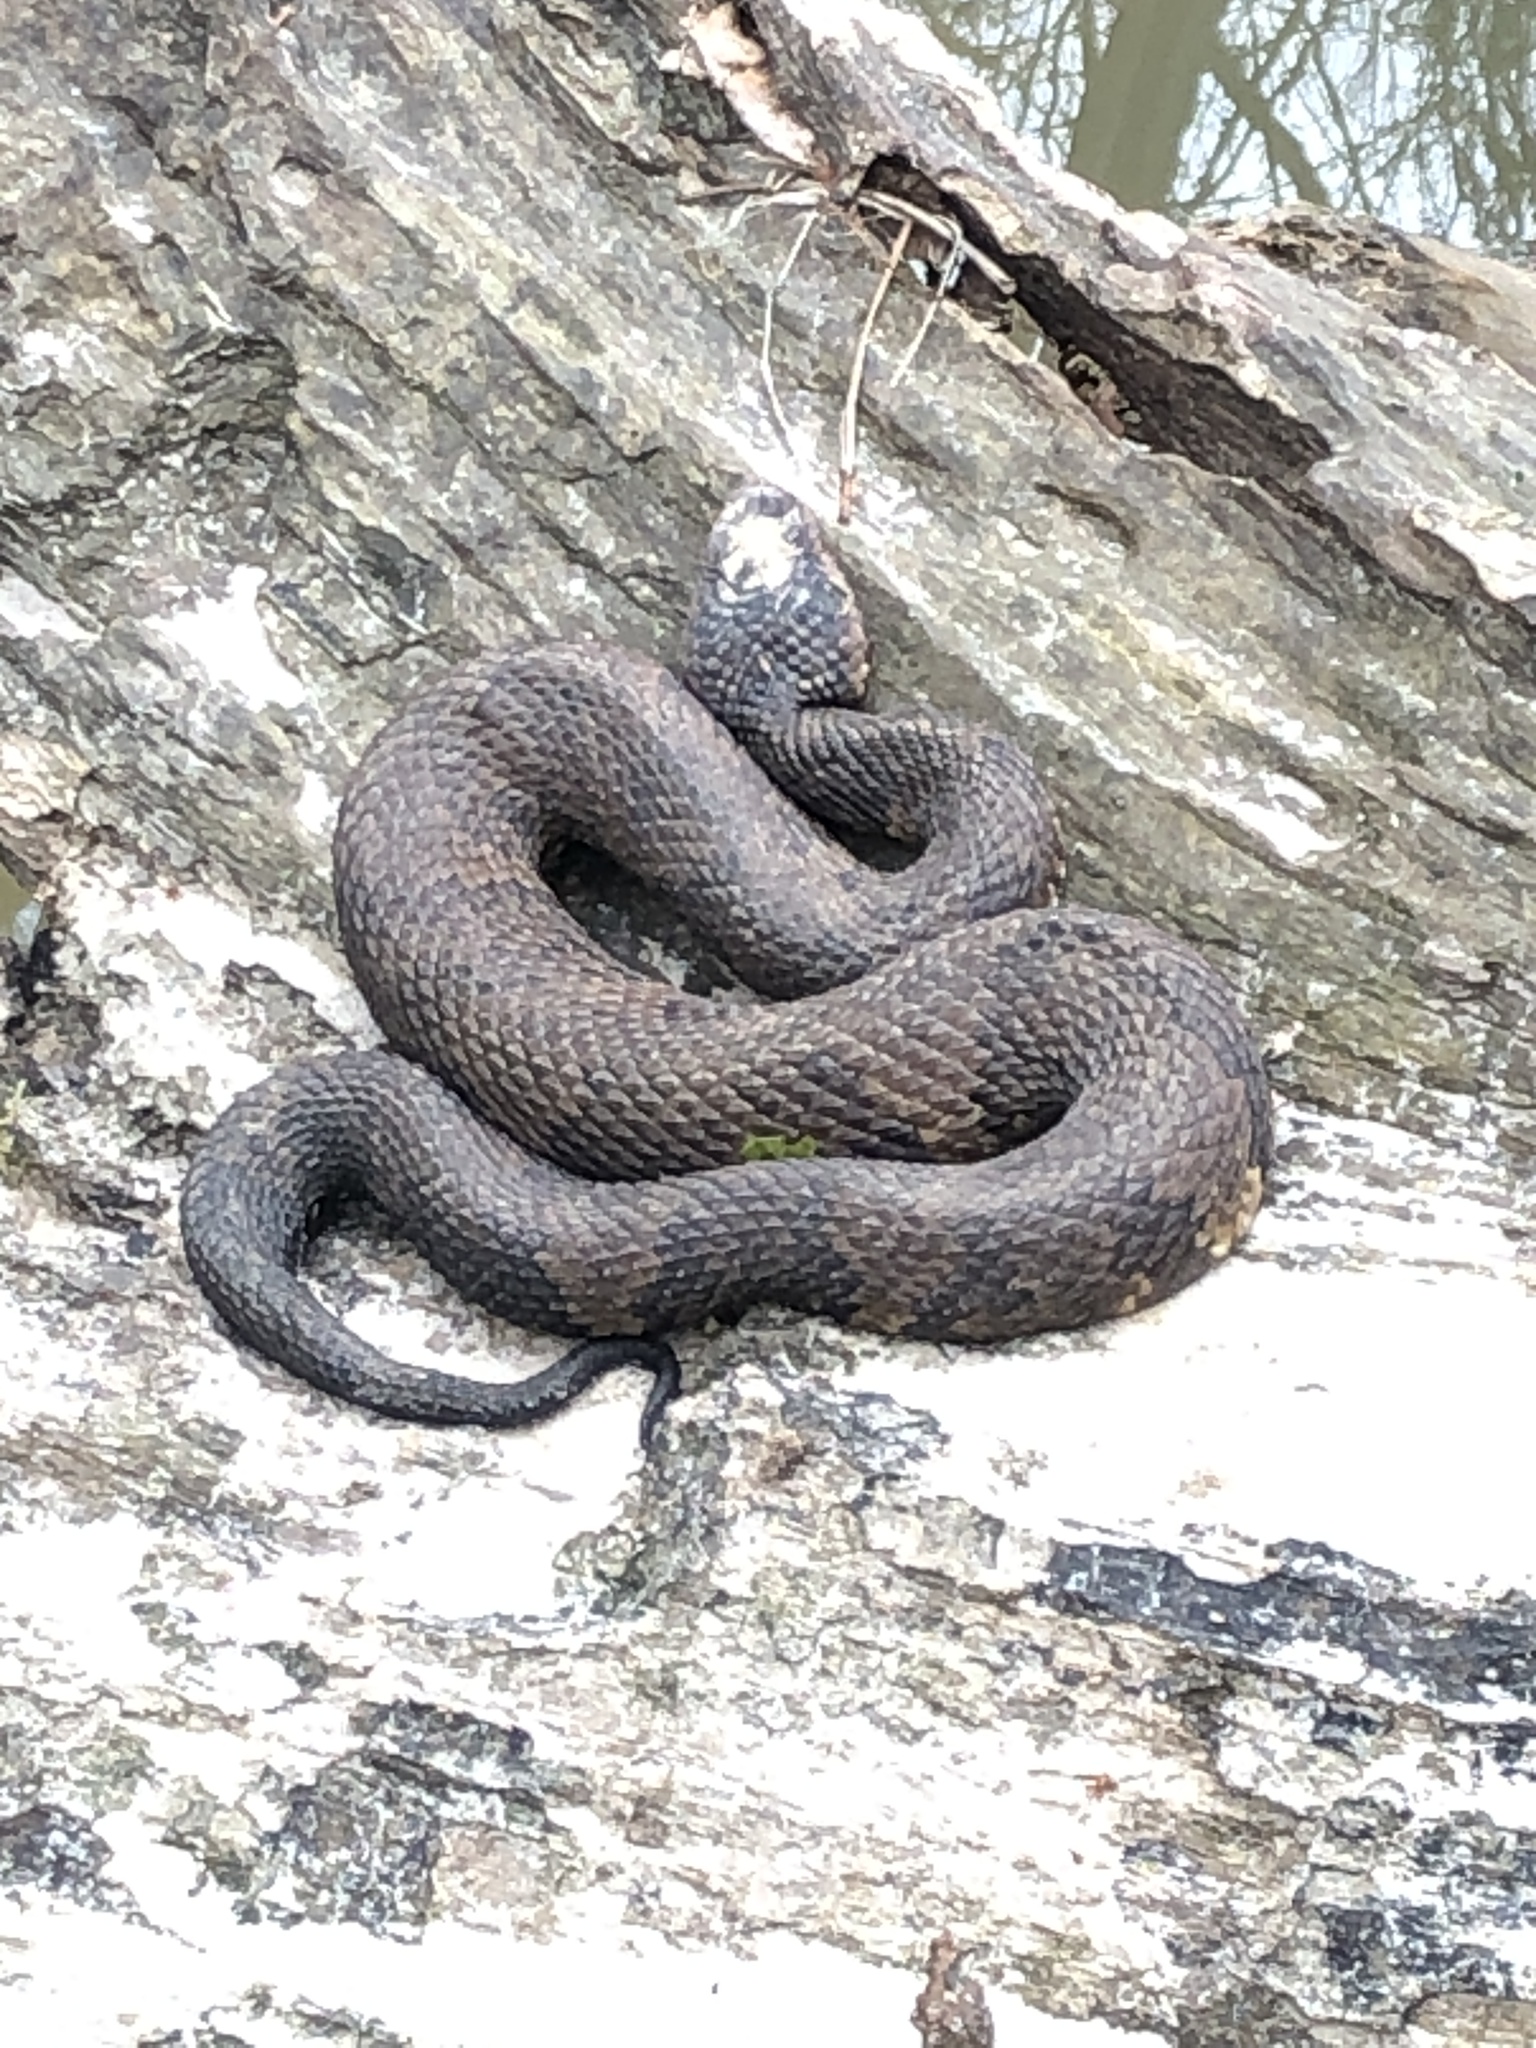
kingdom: Animalia
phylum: Chordata
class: Squamata
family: Viperidae
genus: Agkistrodon
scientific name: Agkistrodon piscivorus
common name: Cottonmouth
